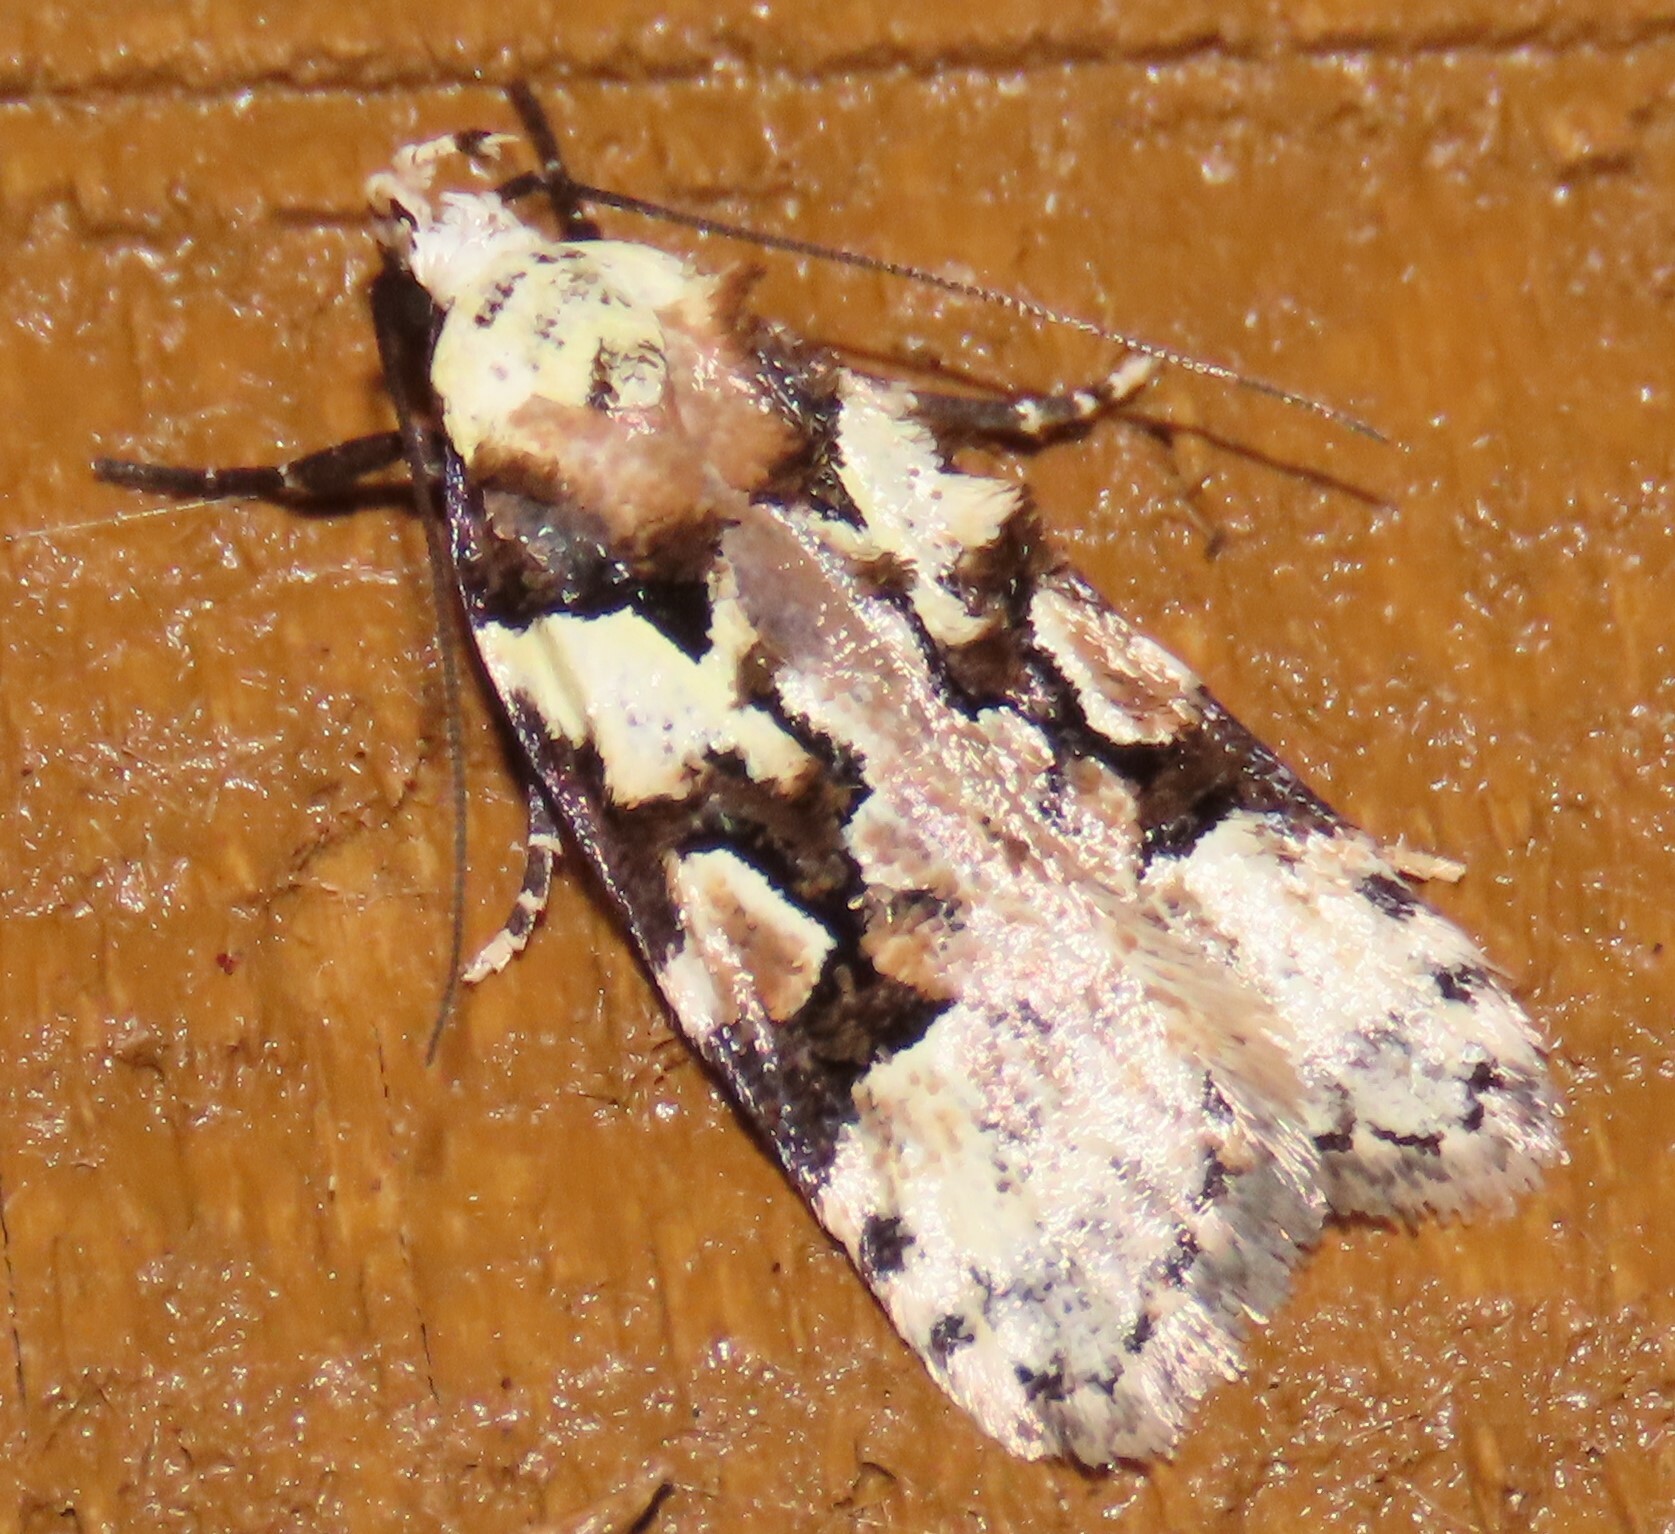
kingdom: Animalia
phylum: Arthropoda
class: Insecta
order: Lepidoptera
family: Oecophoridae
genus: Izatha
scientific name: Izatha epiphanes
